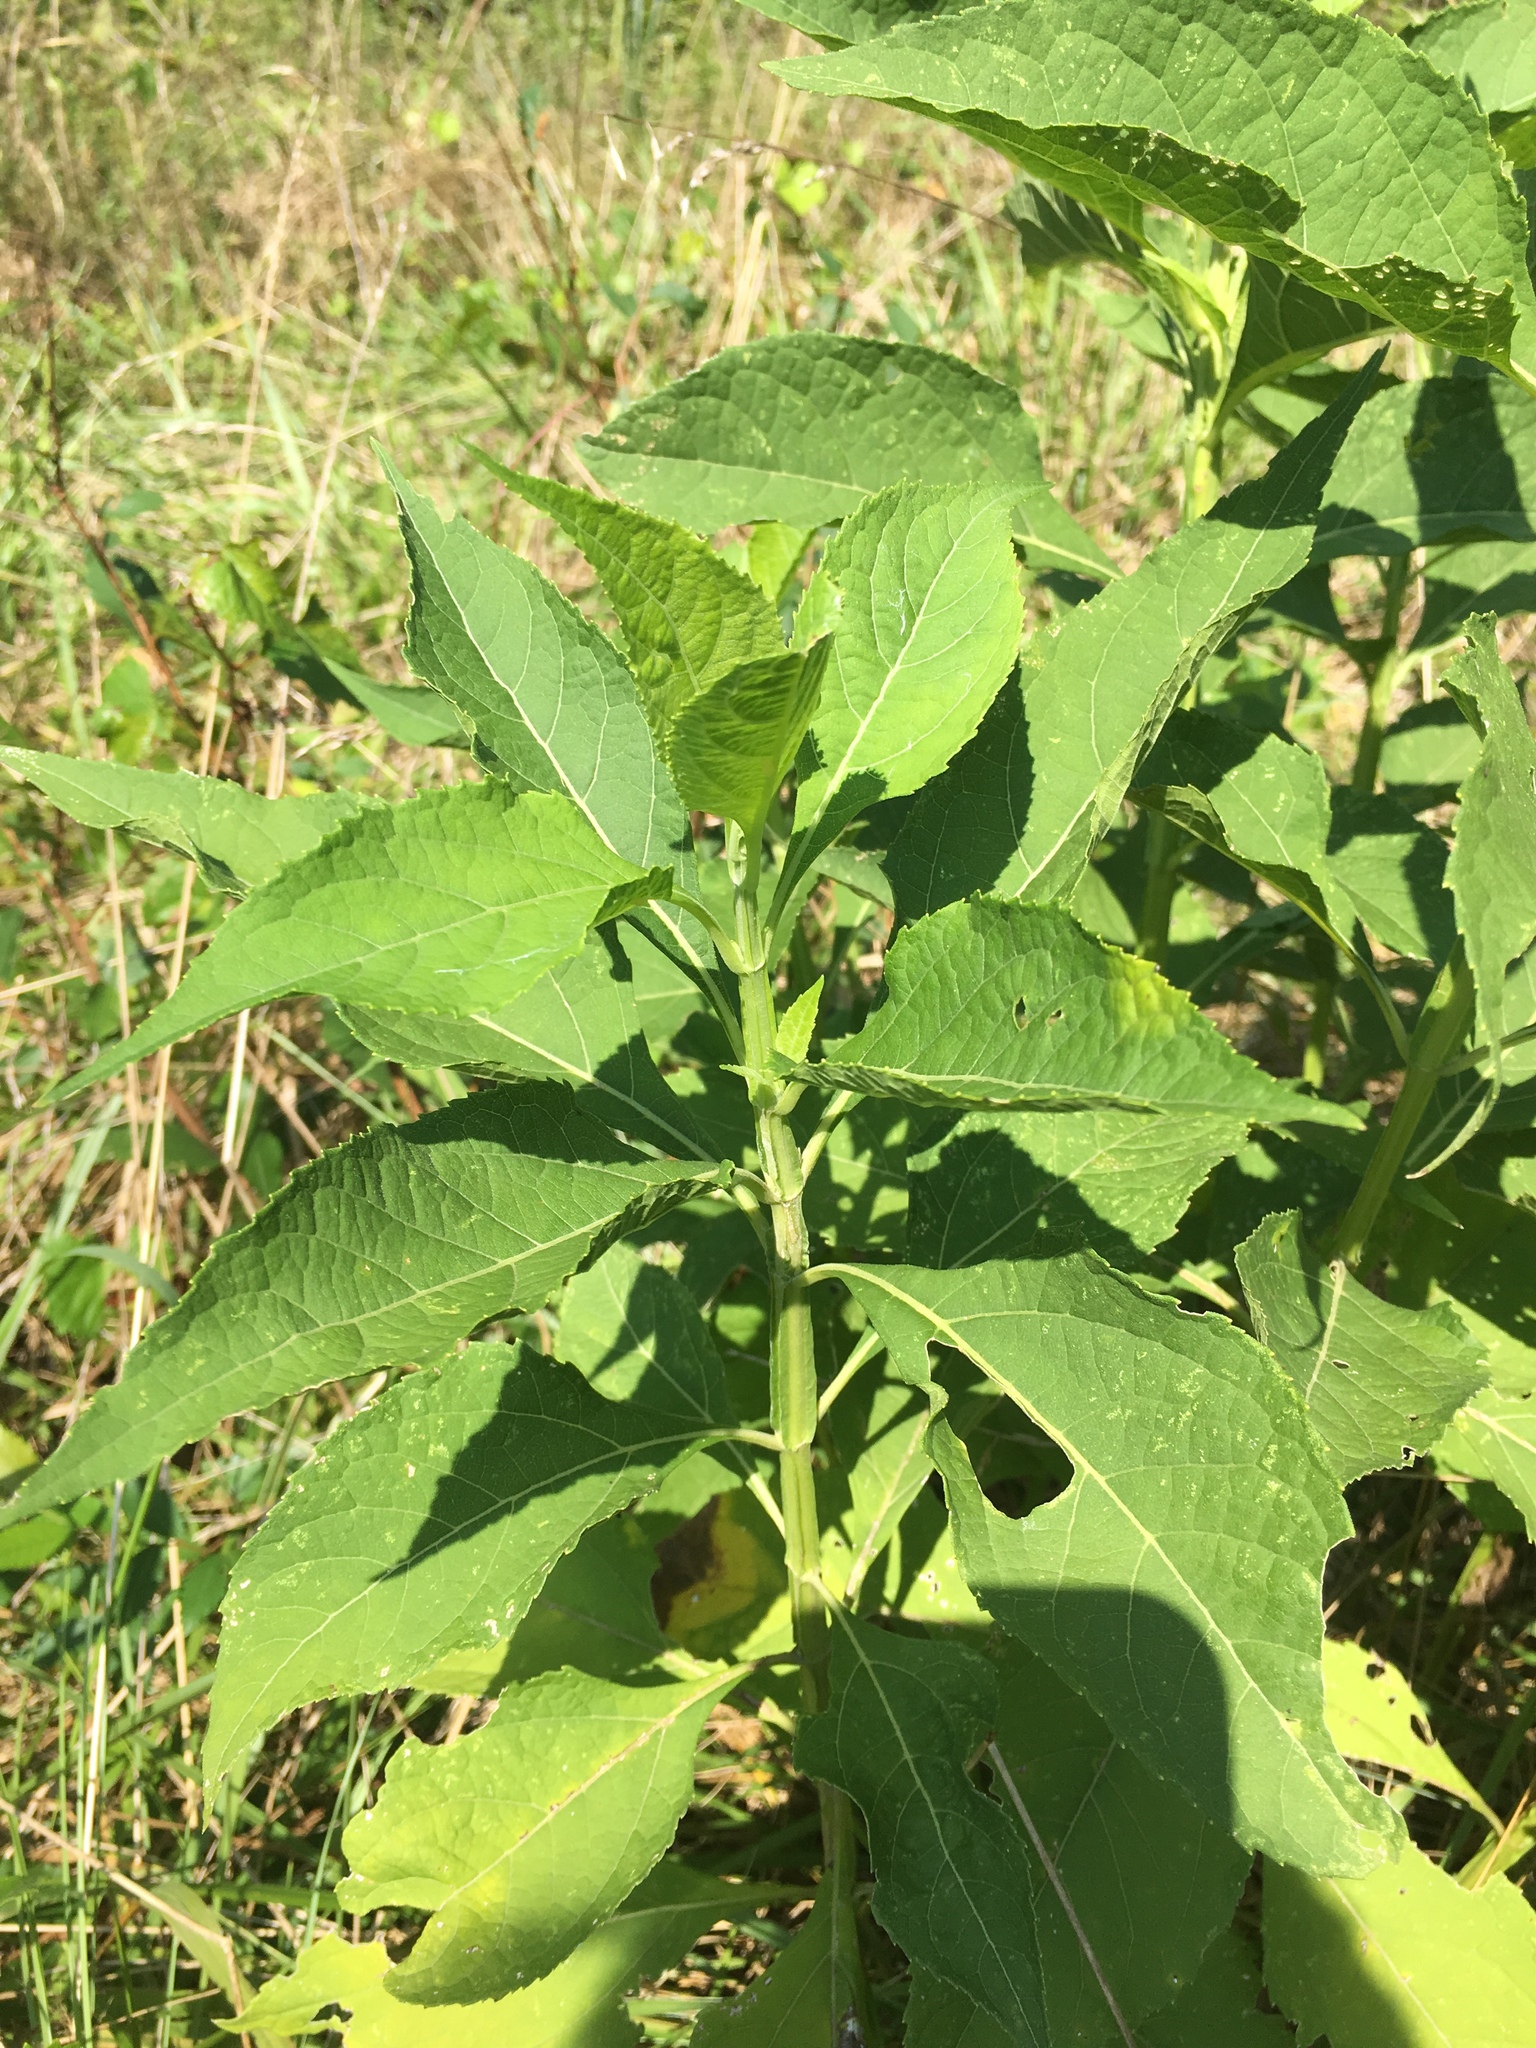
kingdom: Plantae
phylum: Tracheophyta
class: Magnoliopsida
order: Asterales
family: Asteraceae
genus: Verbesina
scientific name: Verbesina occidentalis
